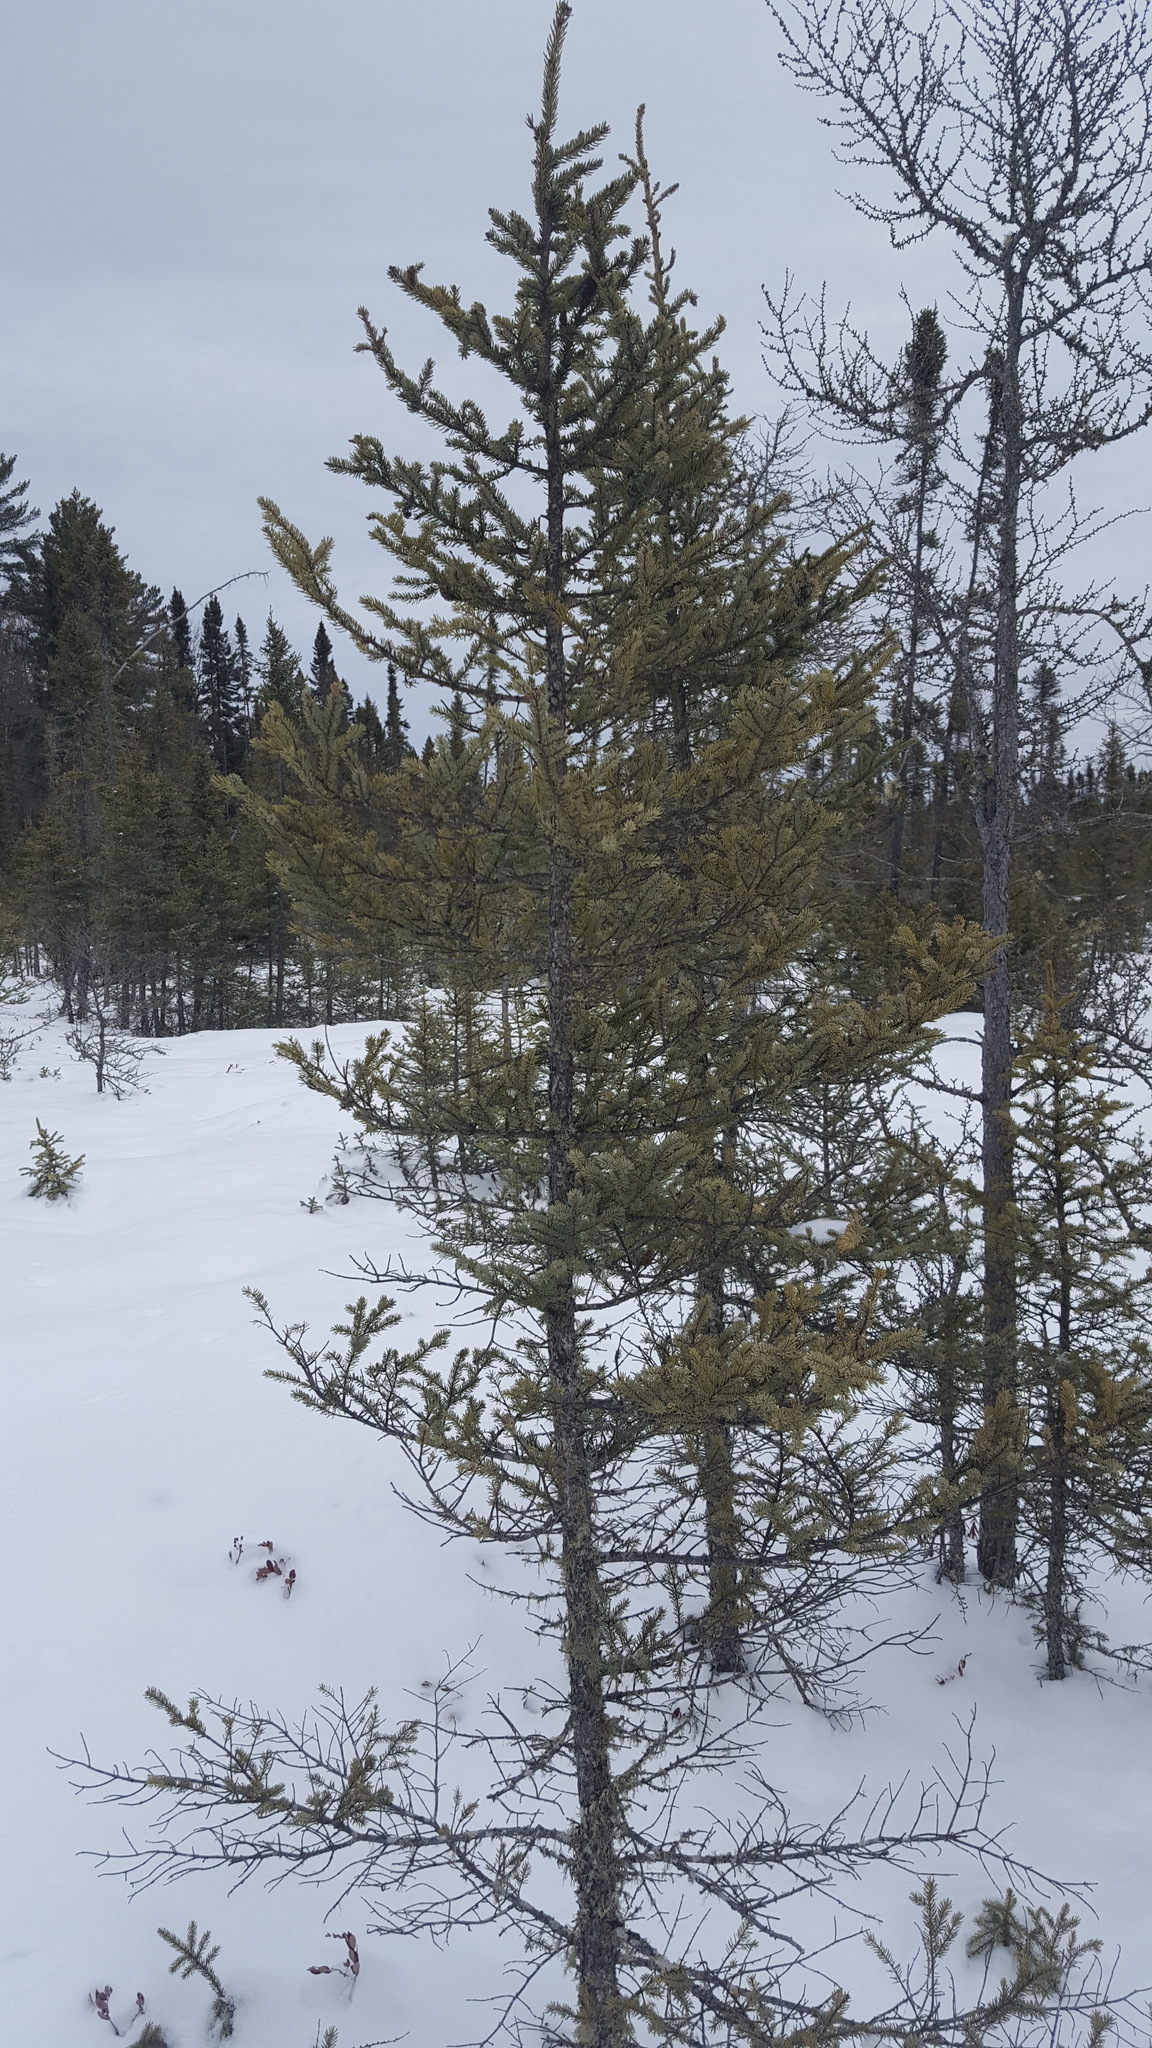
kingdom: Plantae
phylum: Tracheophyta
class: Pinopsida
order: Pinales
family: Pinaceae
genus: Picea
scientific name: Picea mariana
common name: Black spruce
